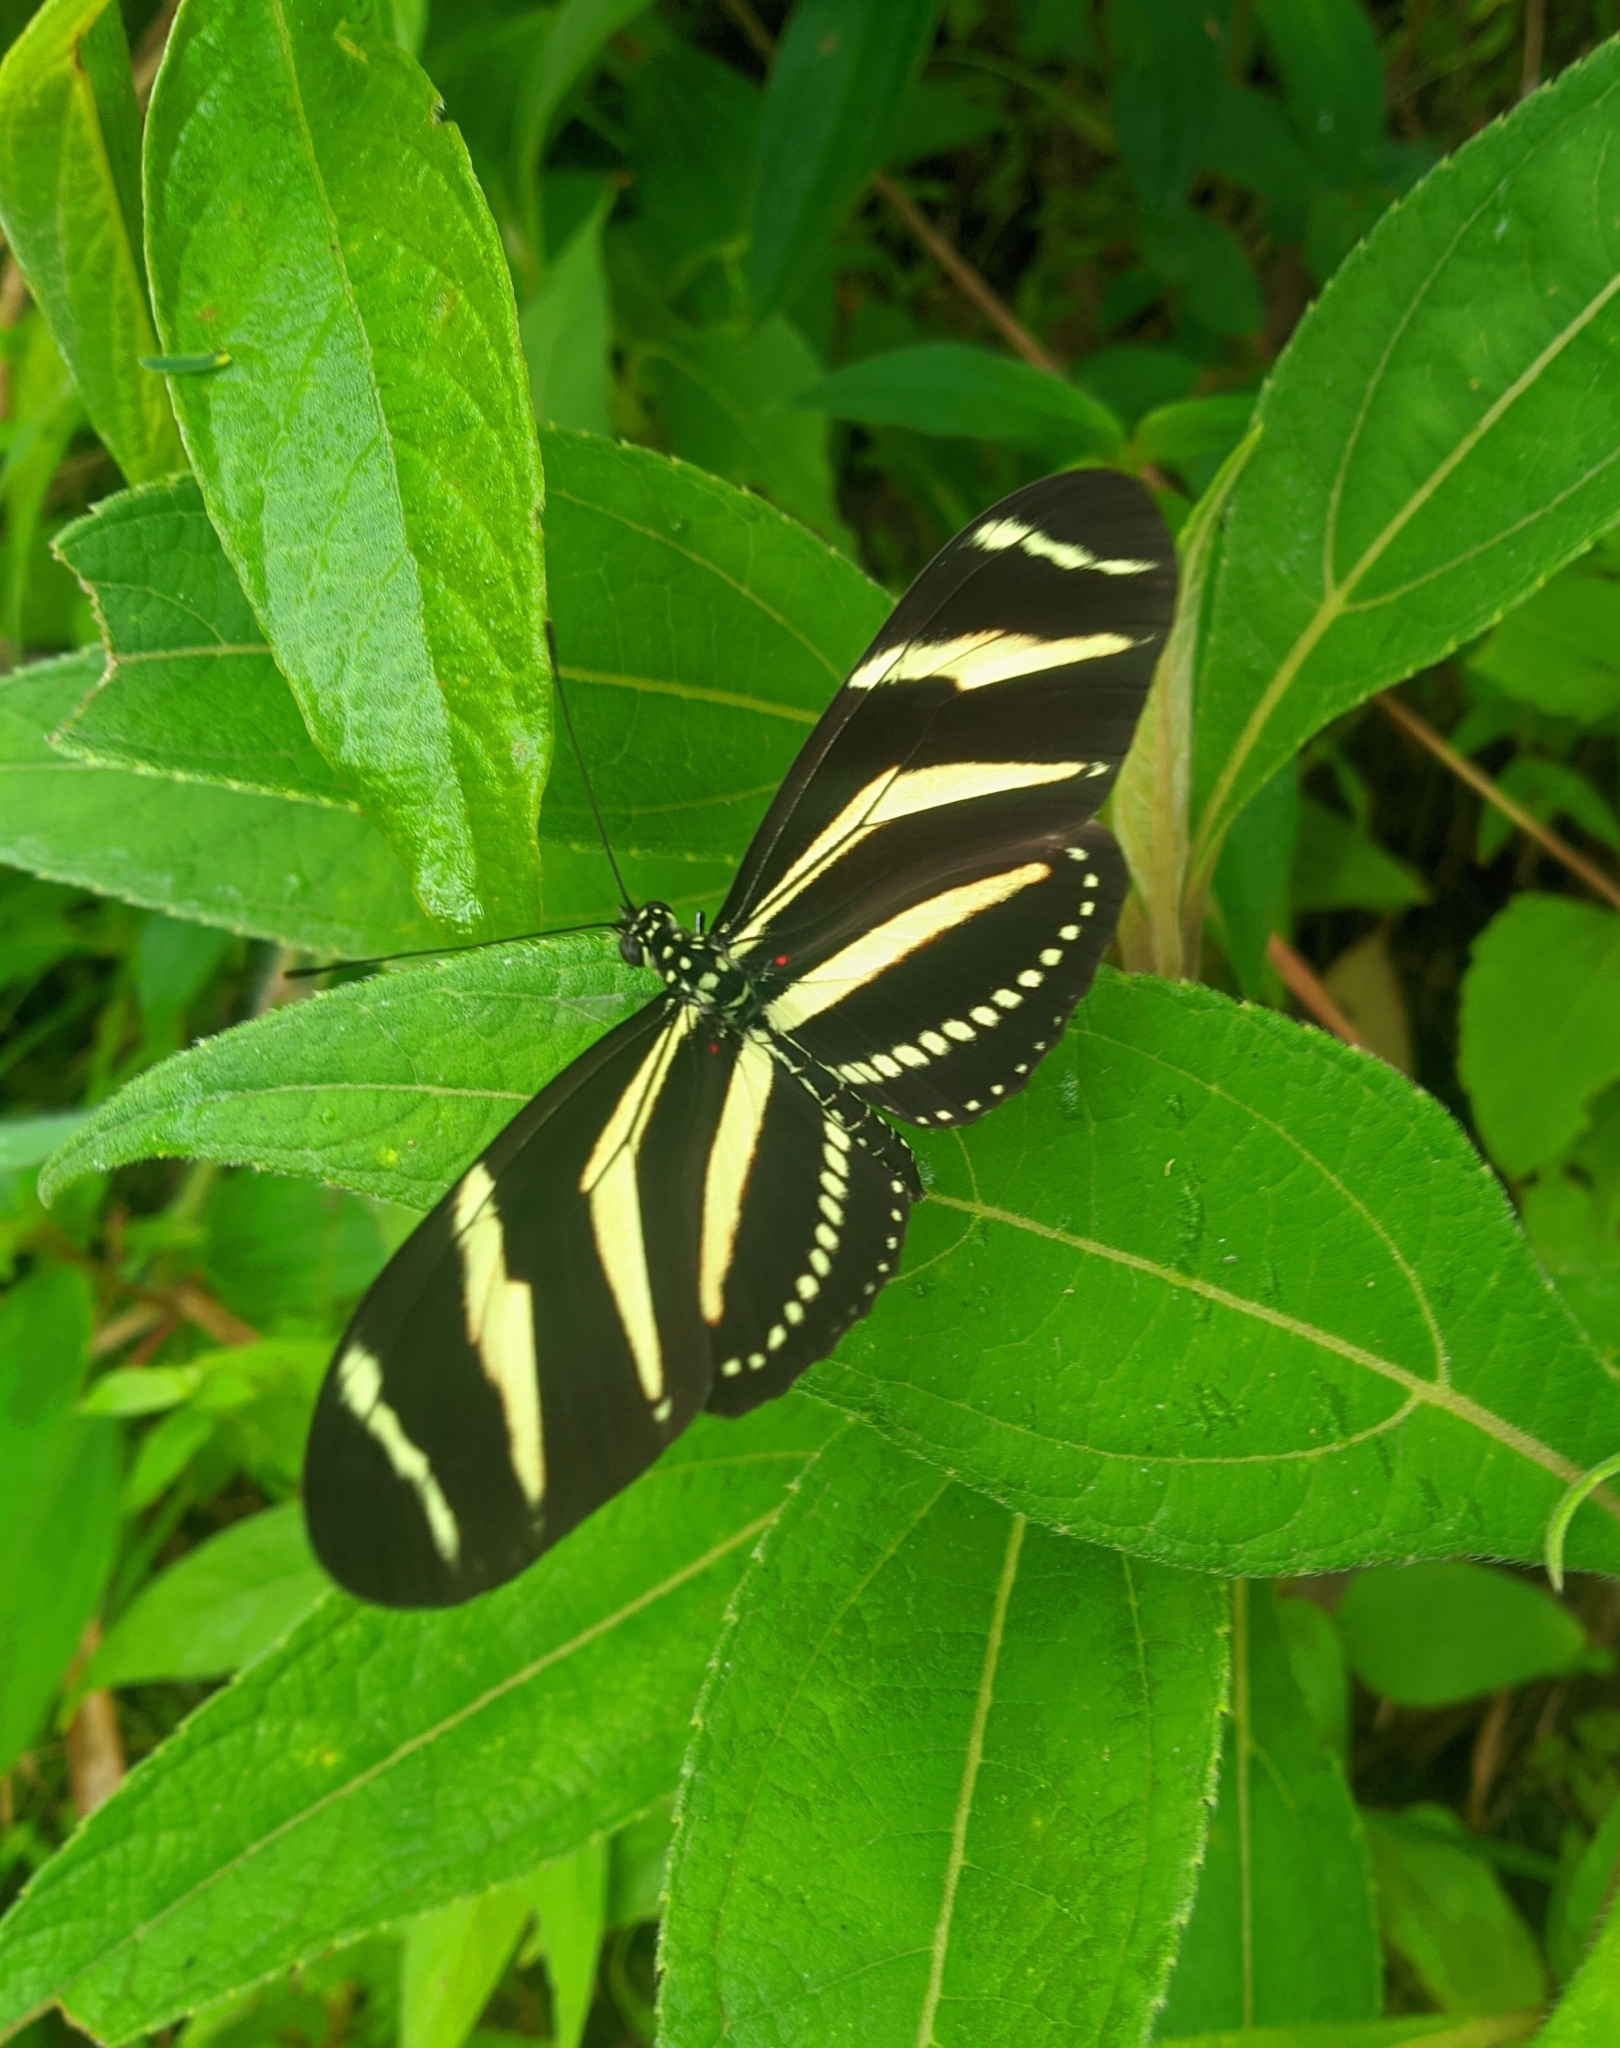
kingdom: Animalia
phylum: Arthropoda
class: Insecta
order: Lepidoptera
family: Nymphalidae
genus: Heliconius
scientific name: Heliconius charithonia
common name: Zebra long wing
